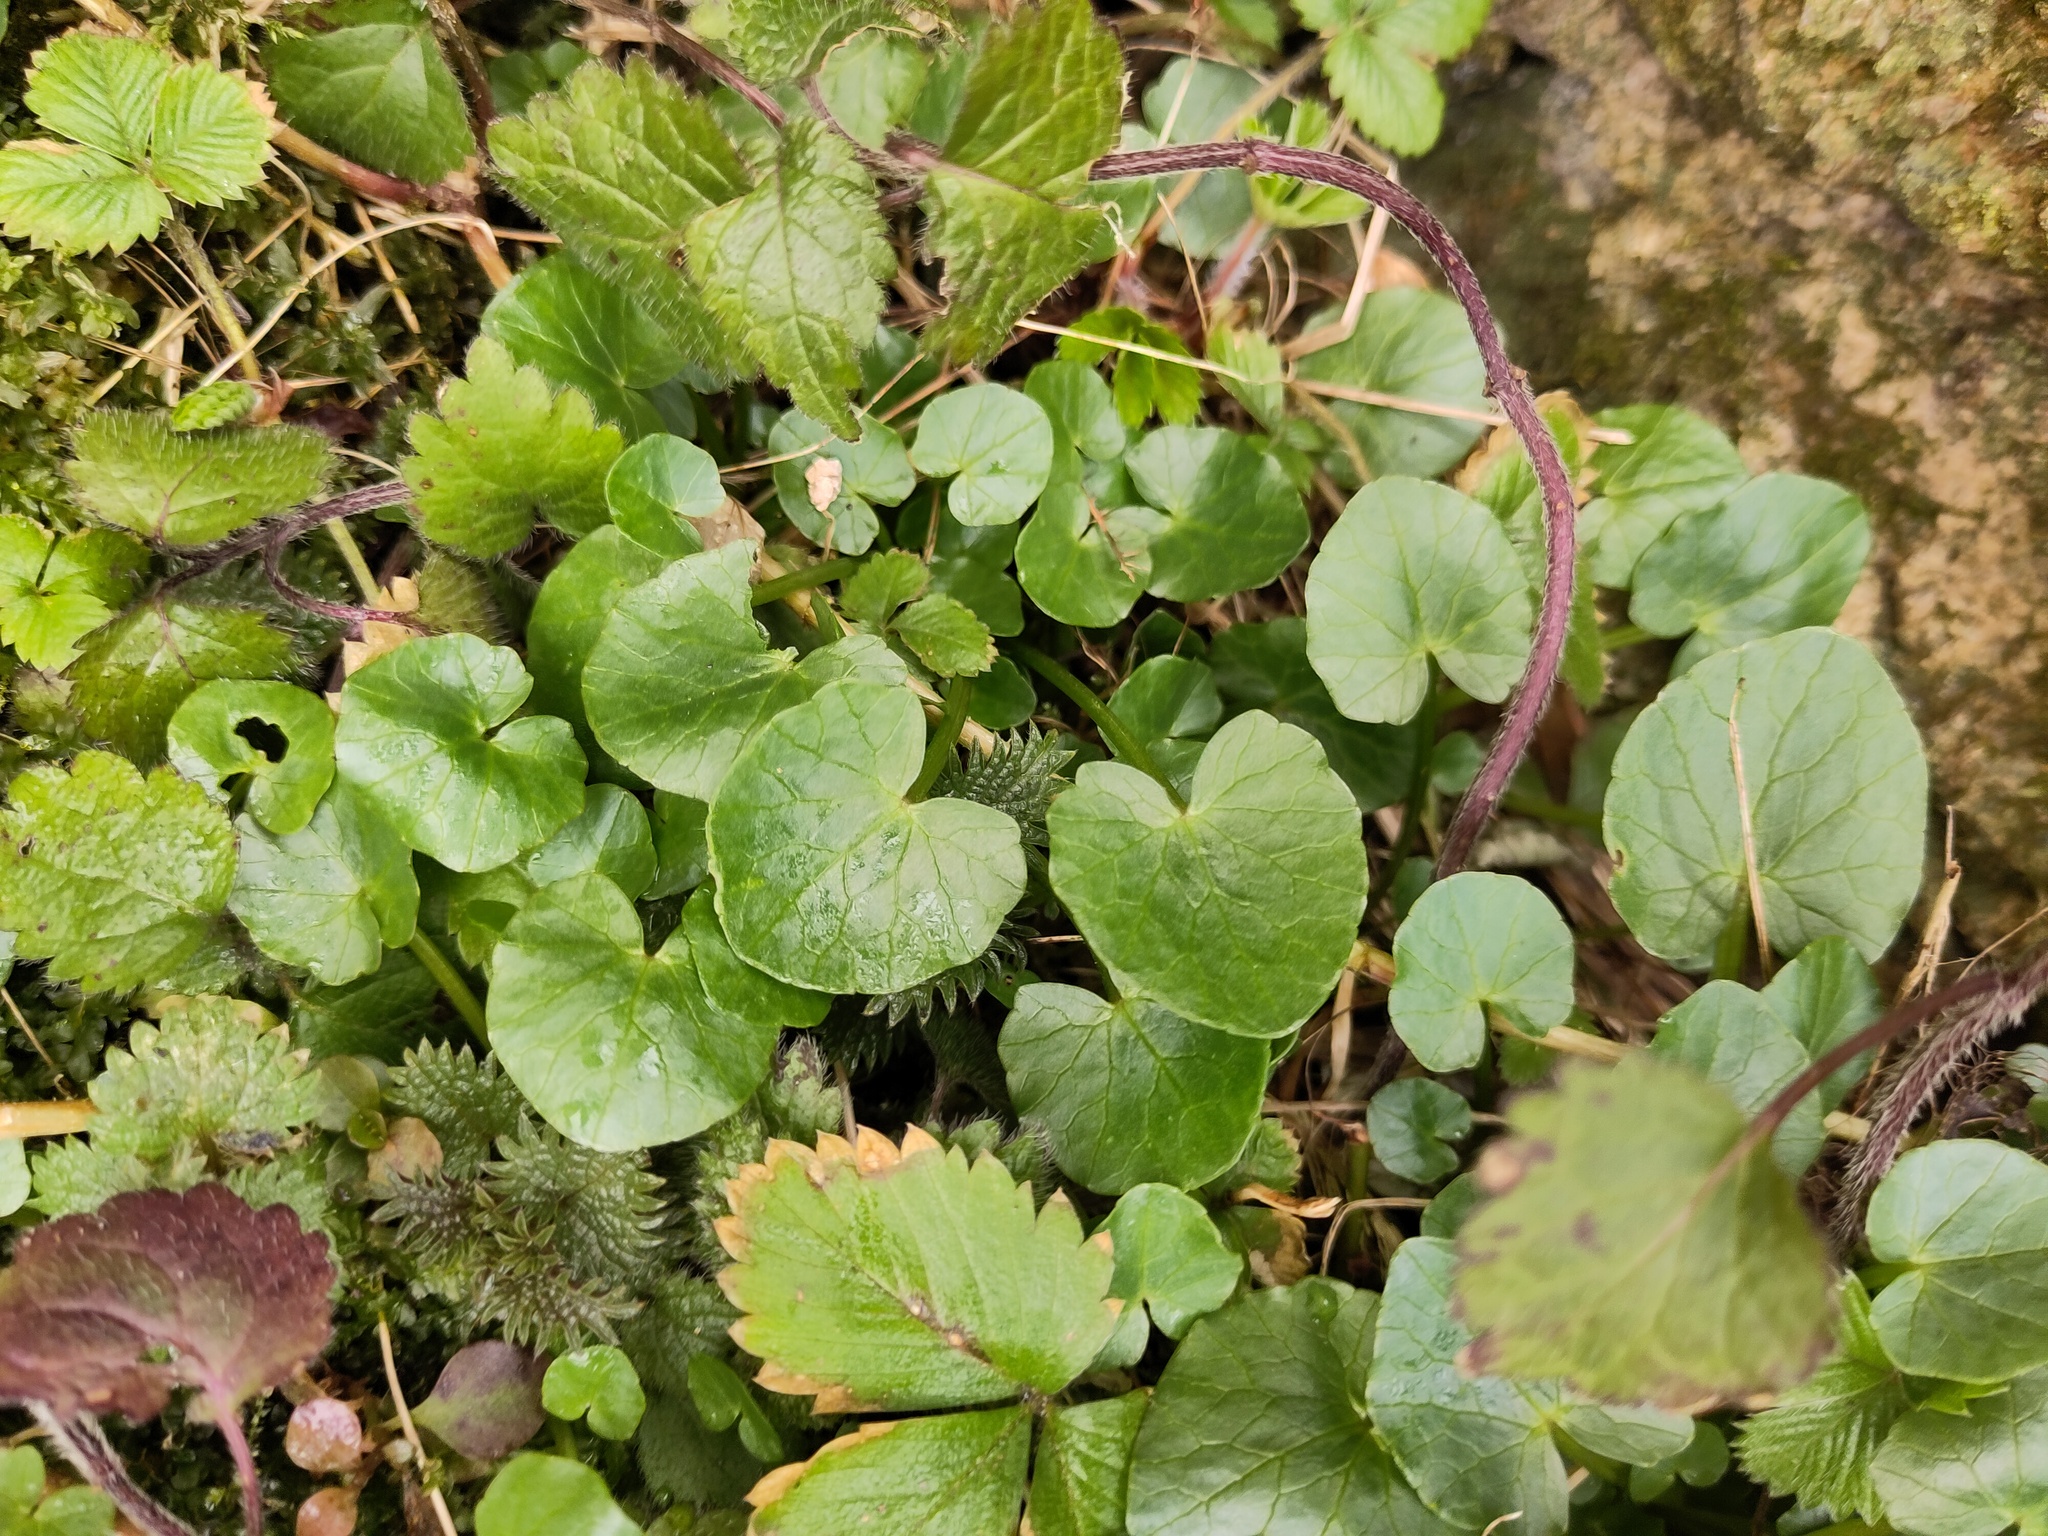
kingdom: Plantae
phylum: Tracheophyta
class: Magnoliopsida
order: Ranunculales
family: Ranunculaceae
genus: Ficaria
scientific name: Ficaria verna
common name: Lesser celandine
